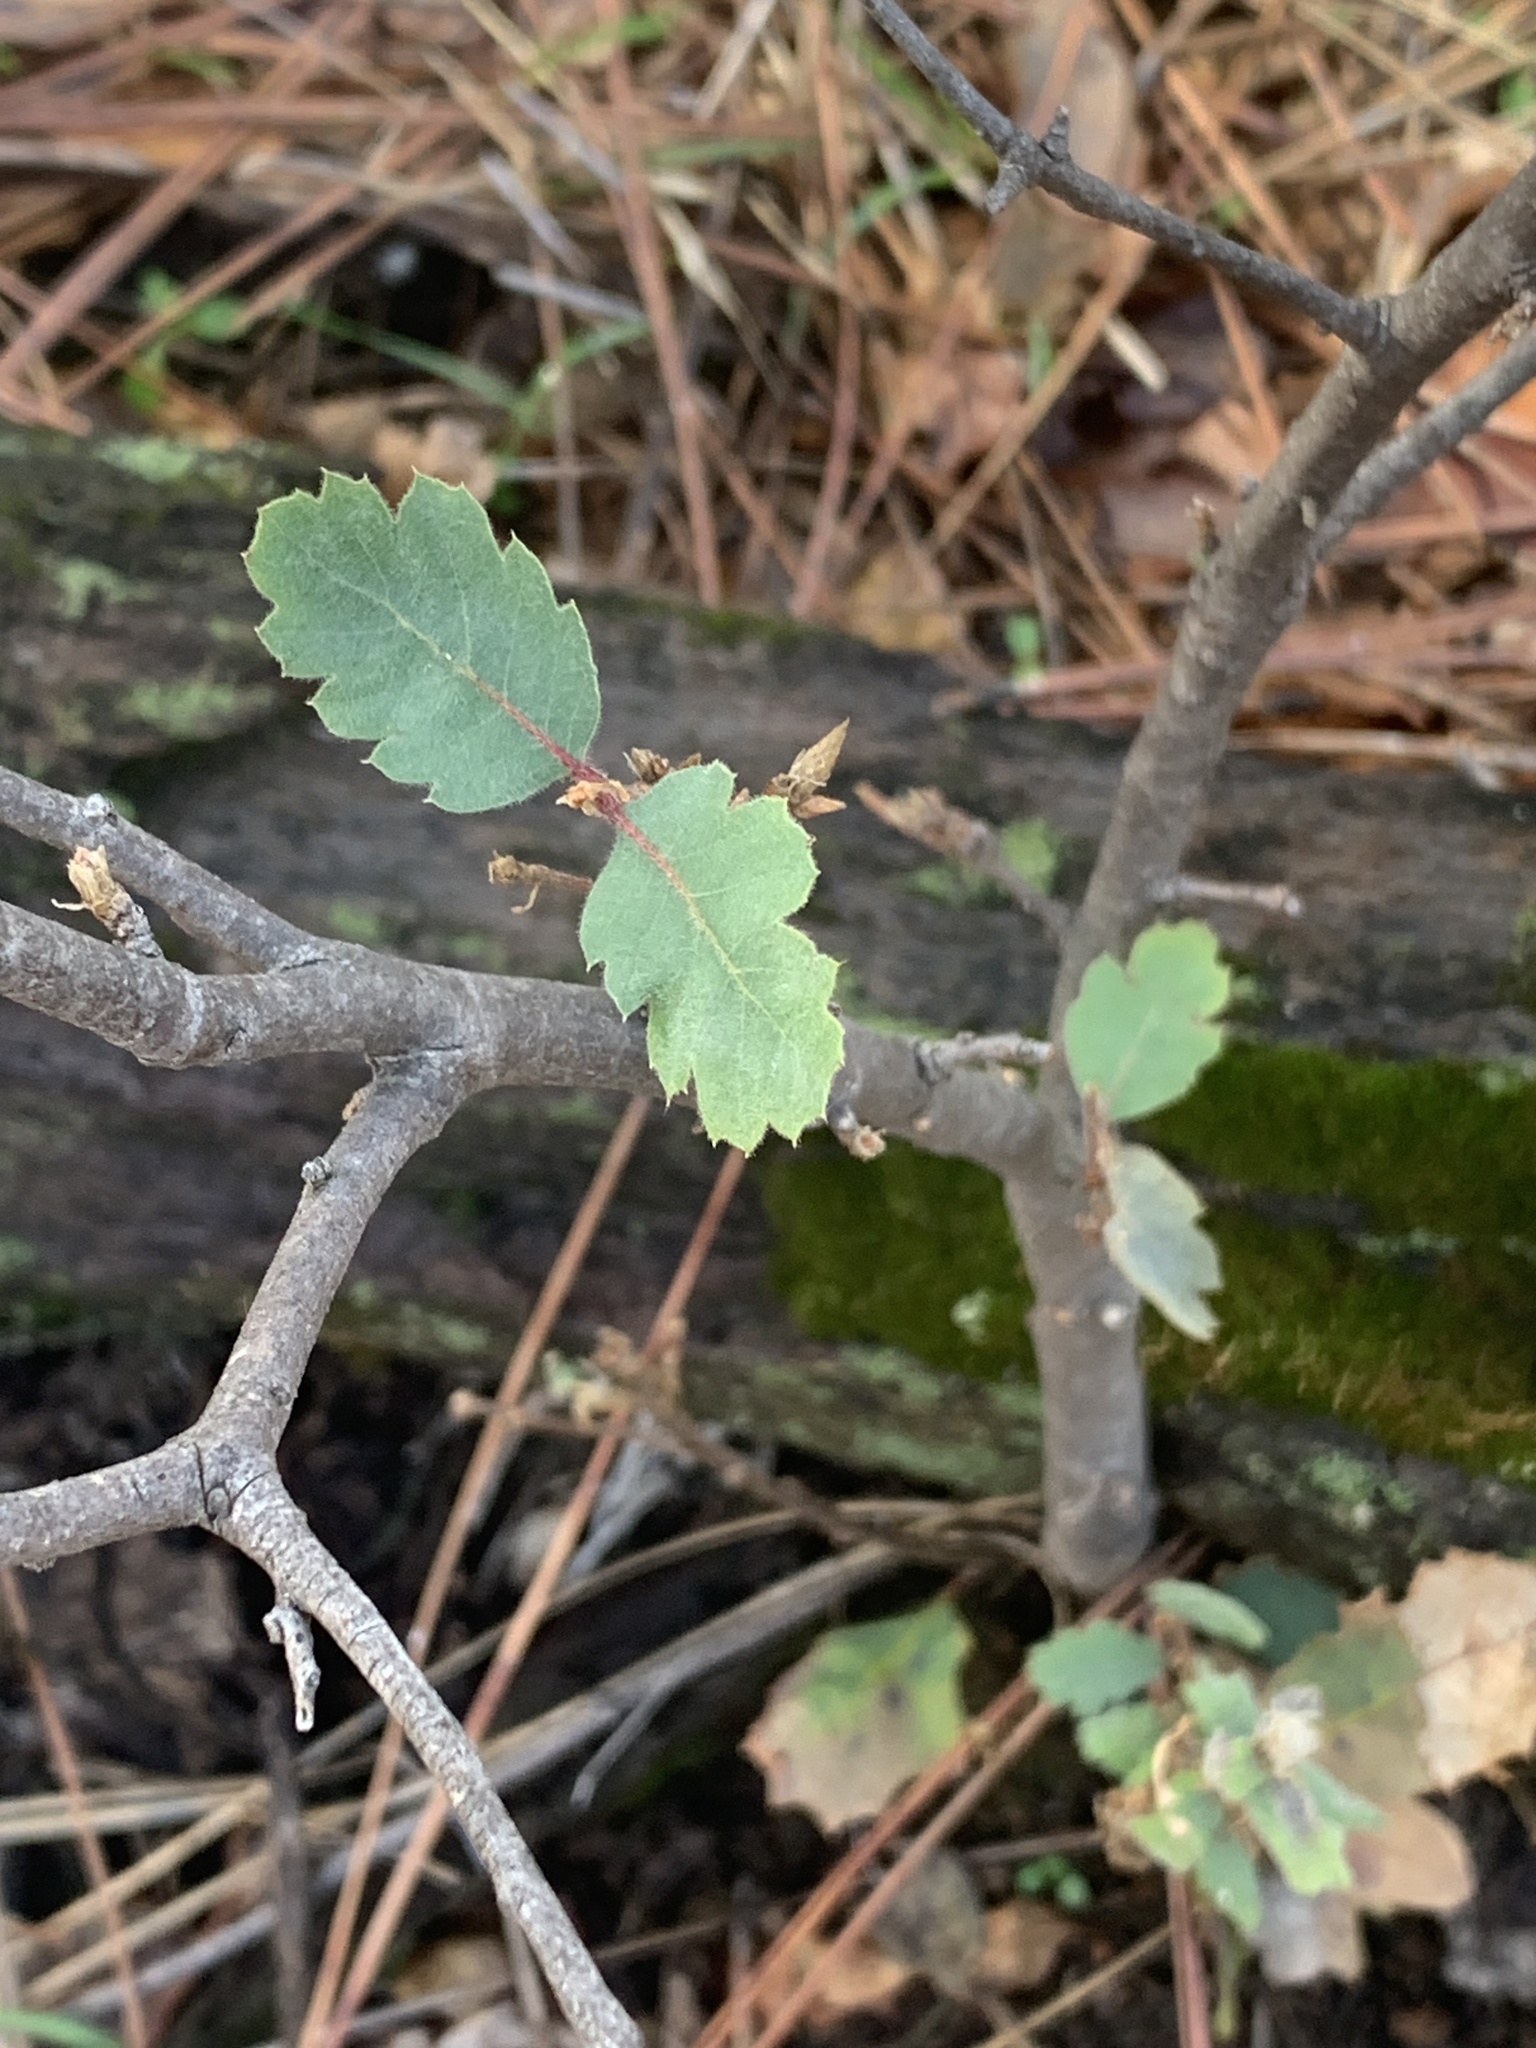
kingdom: Plantae
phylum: Tracheophyta
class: Magnoliopsida
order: Fagales
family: Fagaceae
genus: Quercus
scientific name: Quercus douglasii
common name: Blue oak
